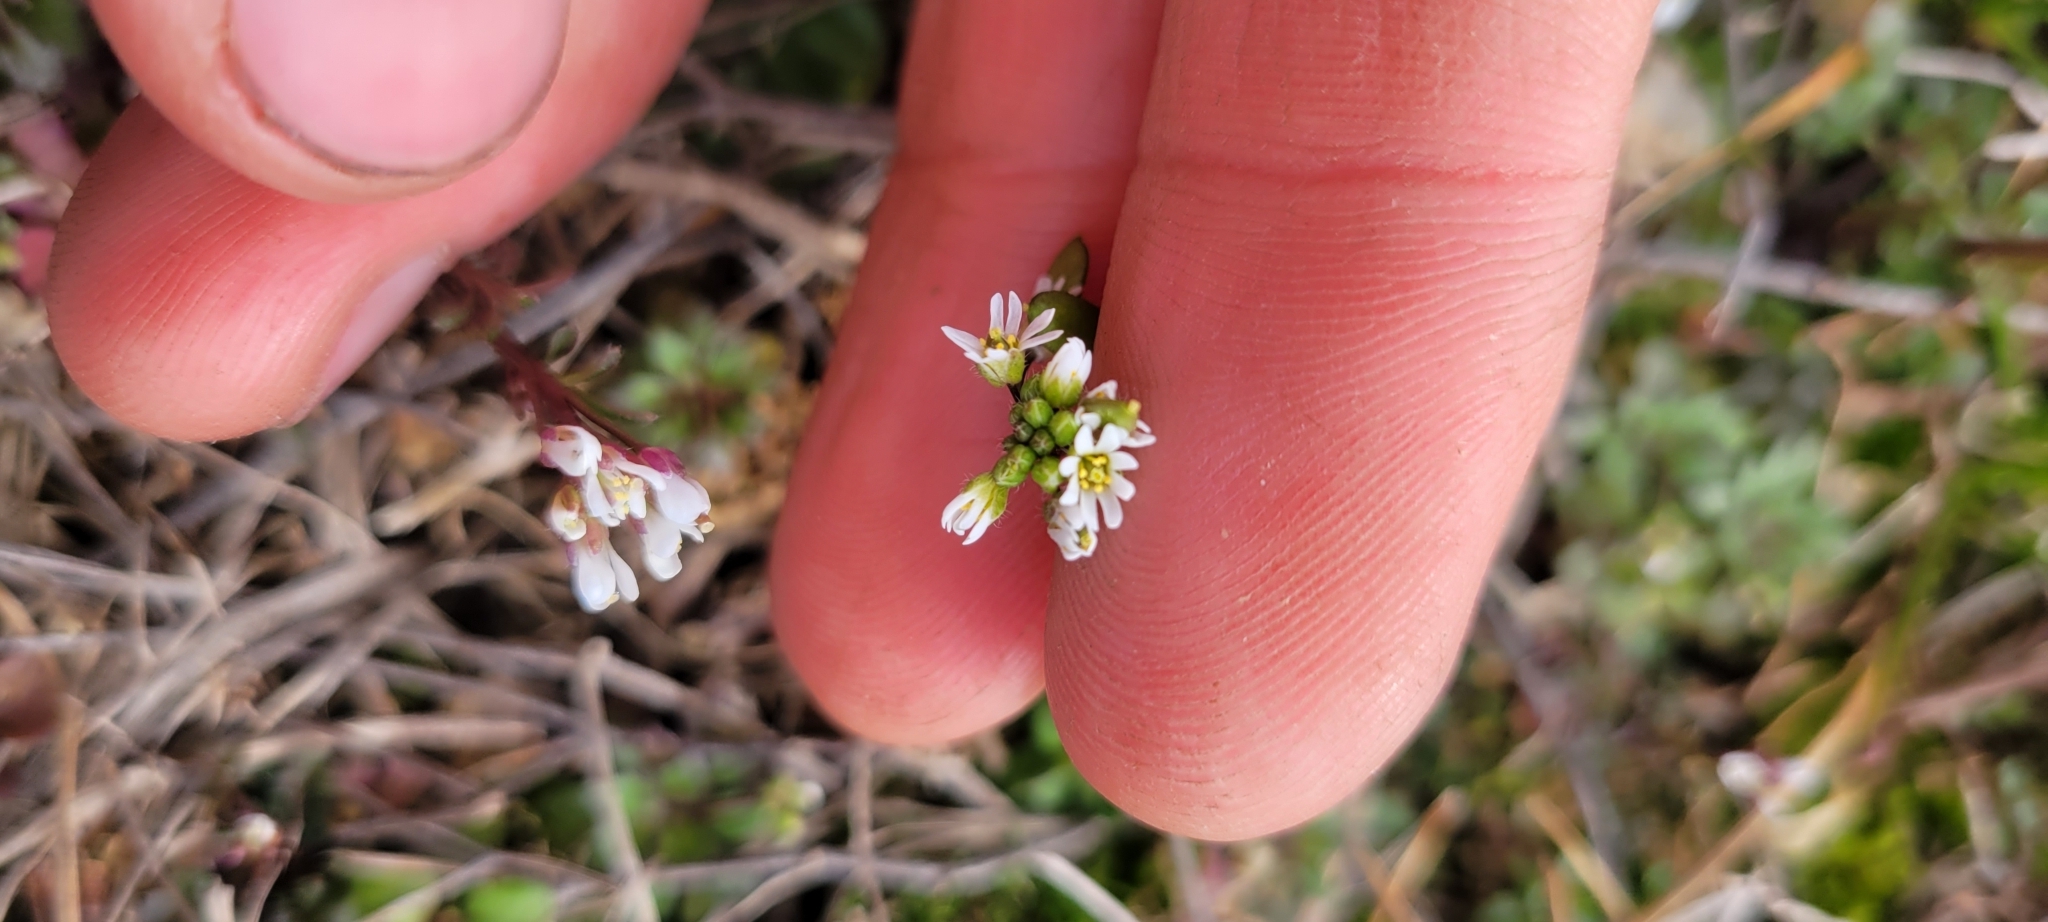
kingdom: Plantae
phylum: Tracheophyta
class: Magnoliopsida
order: Brassicales
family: Brassicaceae
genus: Draba
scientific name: Draba verna
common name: Spring draba
